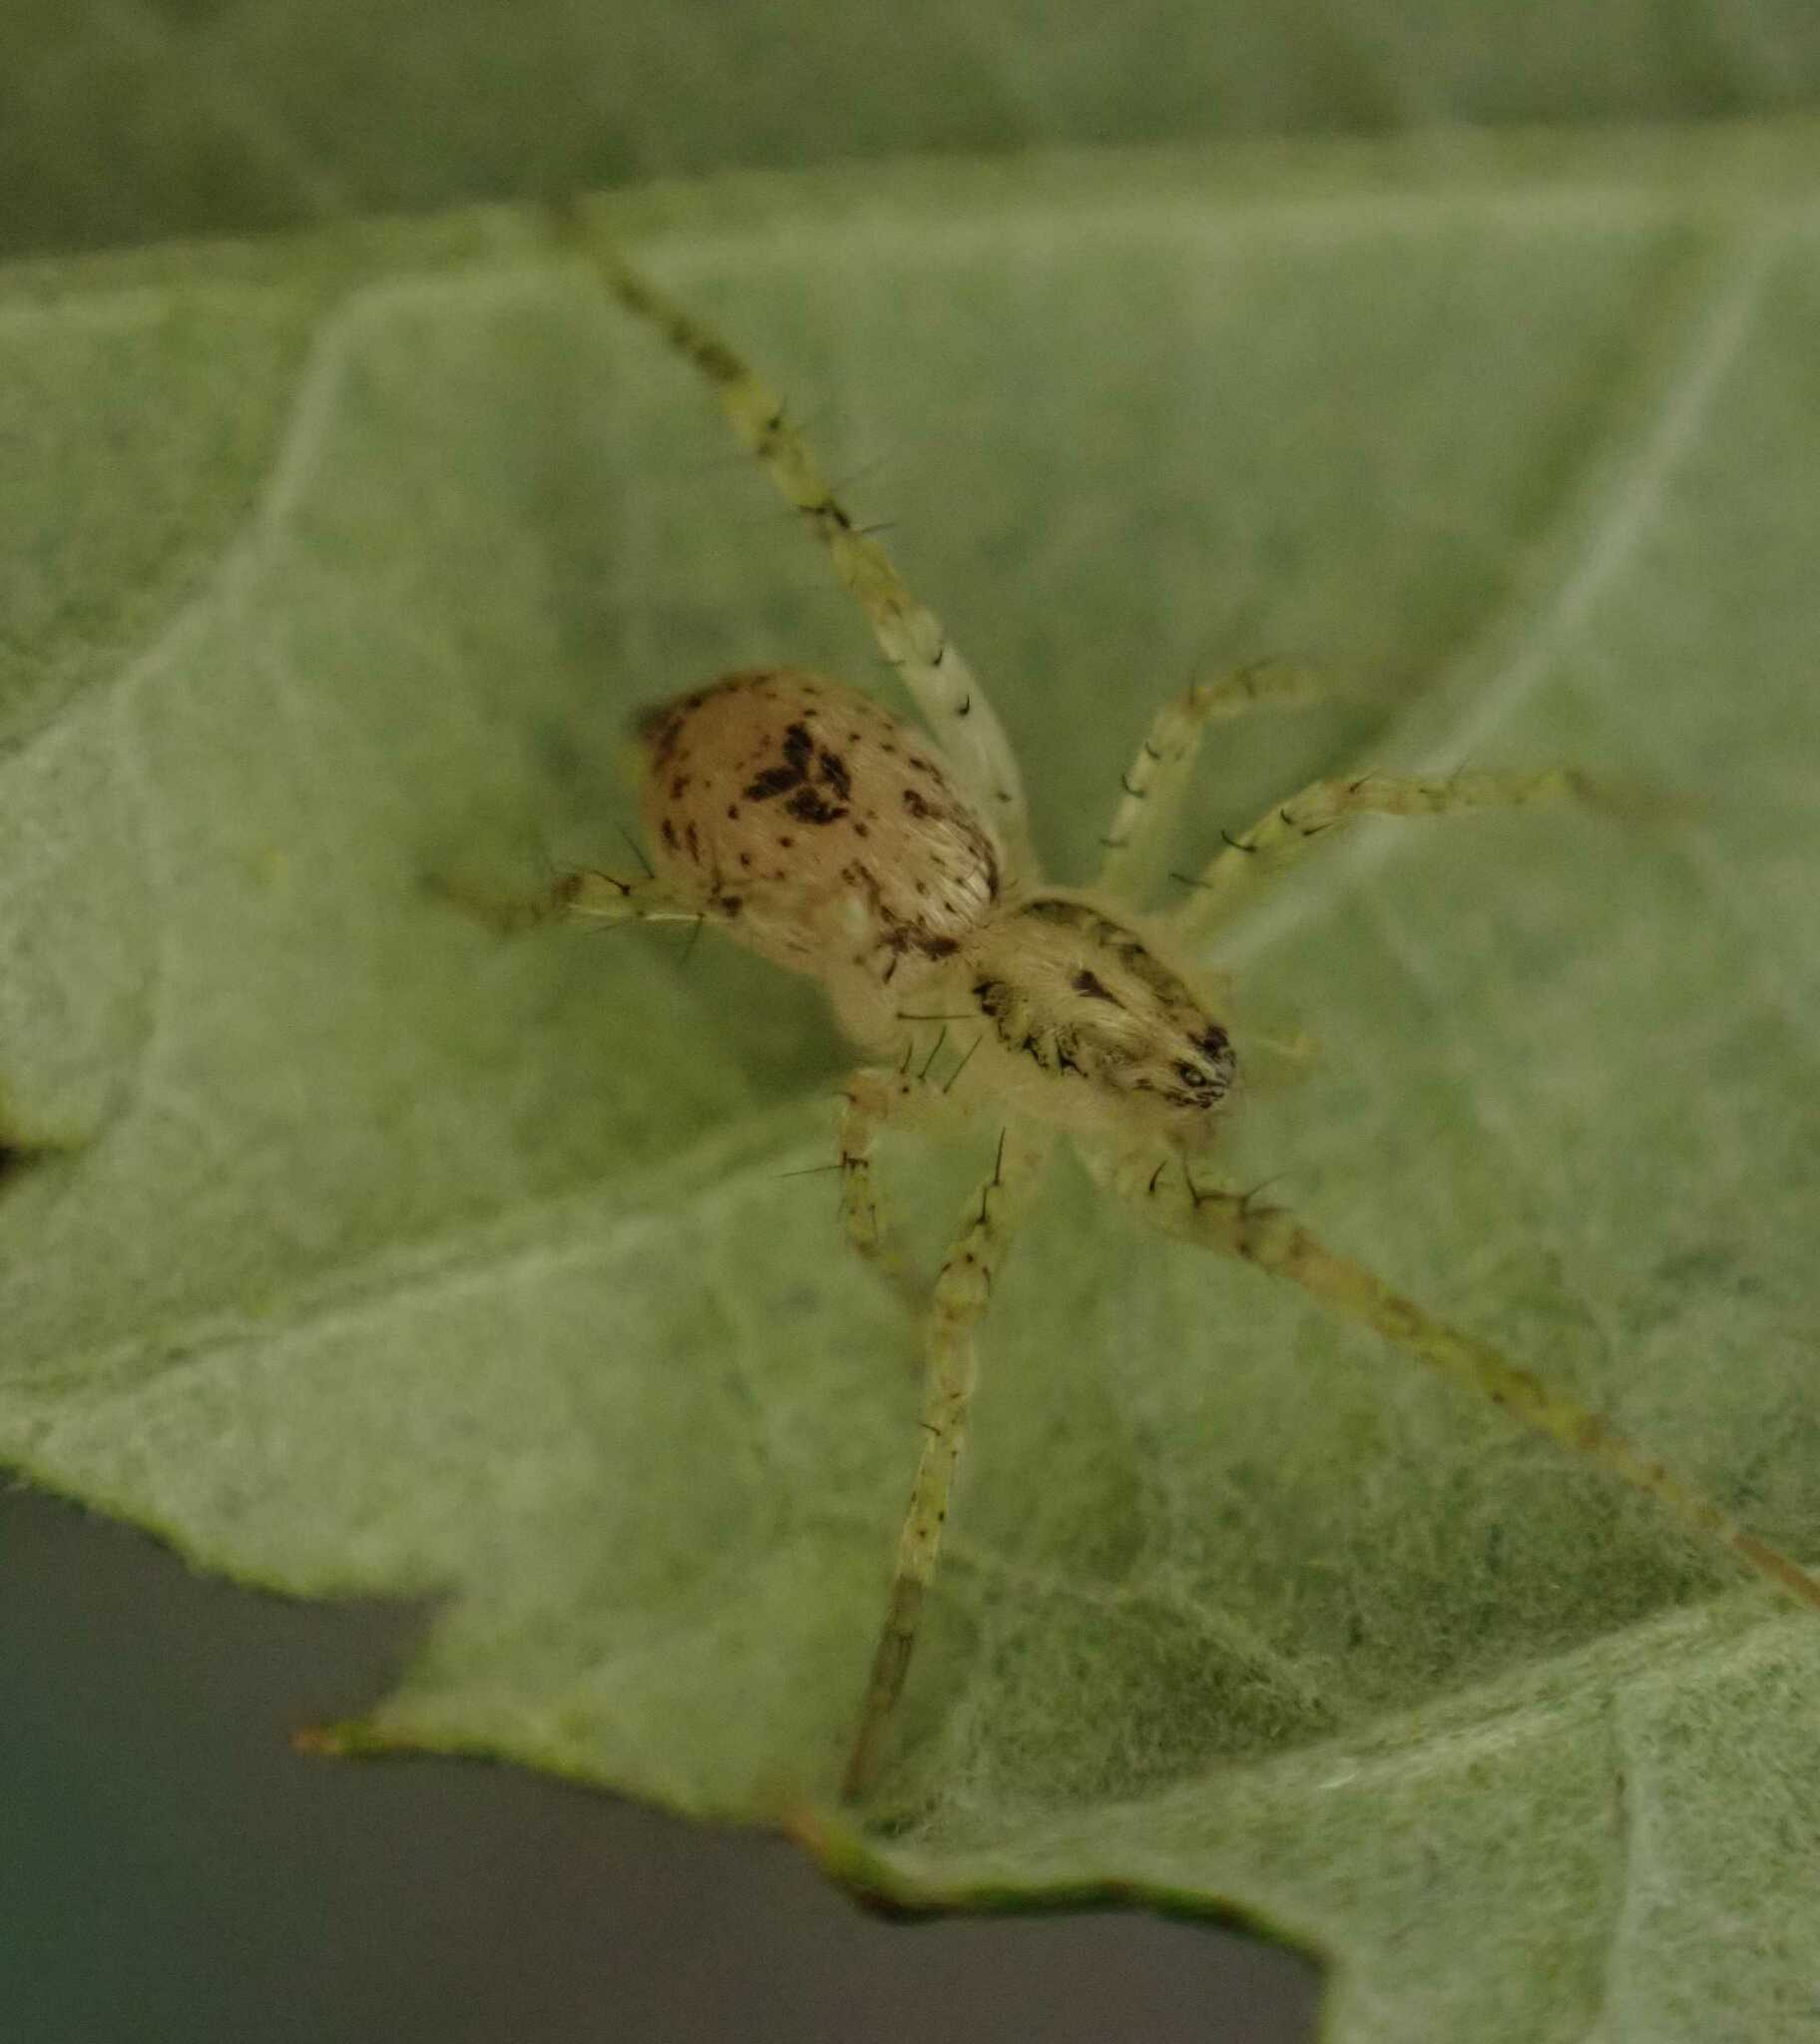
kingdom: Animalia
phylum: Arthropoda
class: Arachnida
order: Araneae
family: Anyphaenidae
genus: Anyphaena
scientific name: Anyphaena accentuata
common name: Buzzing spider
